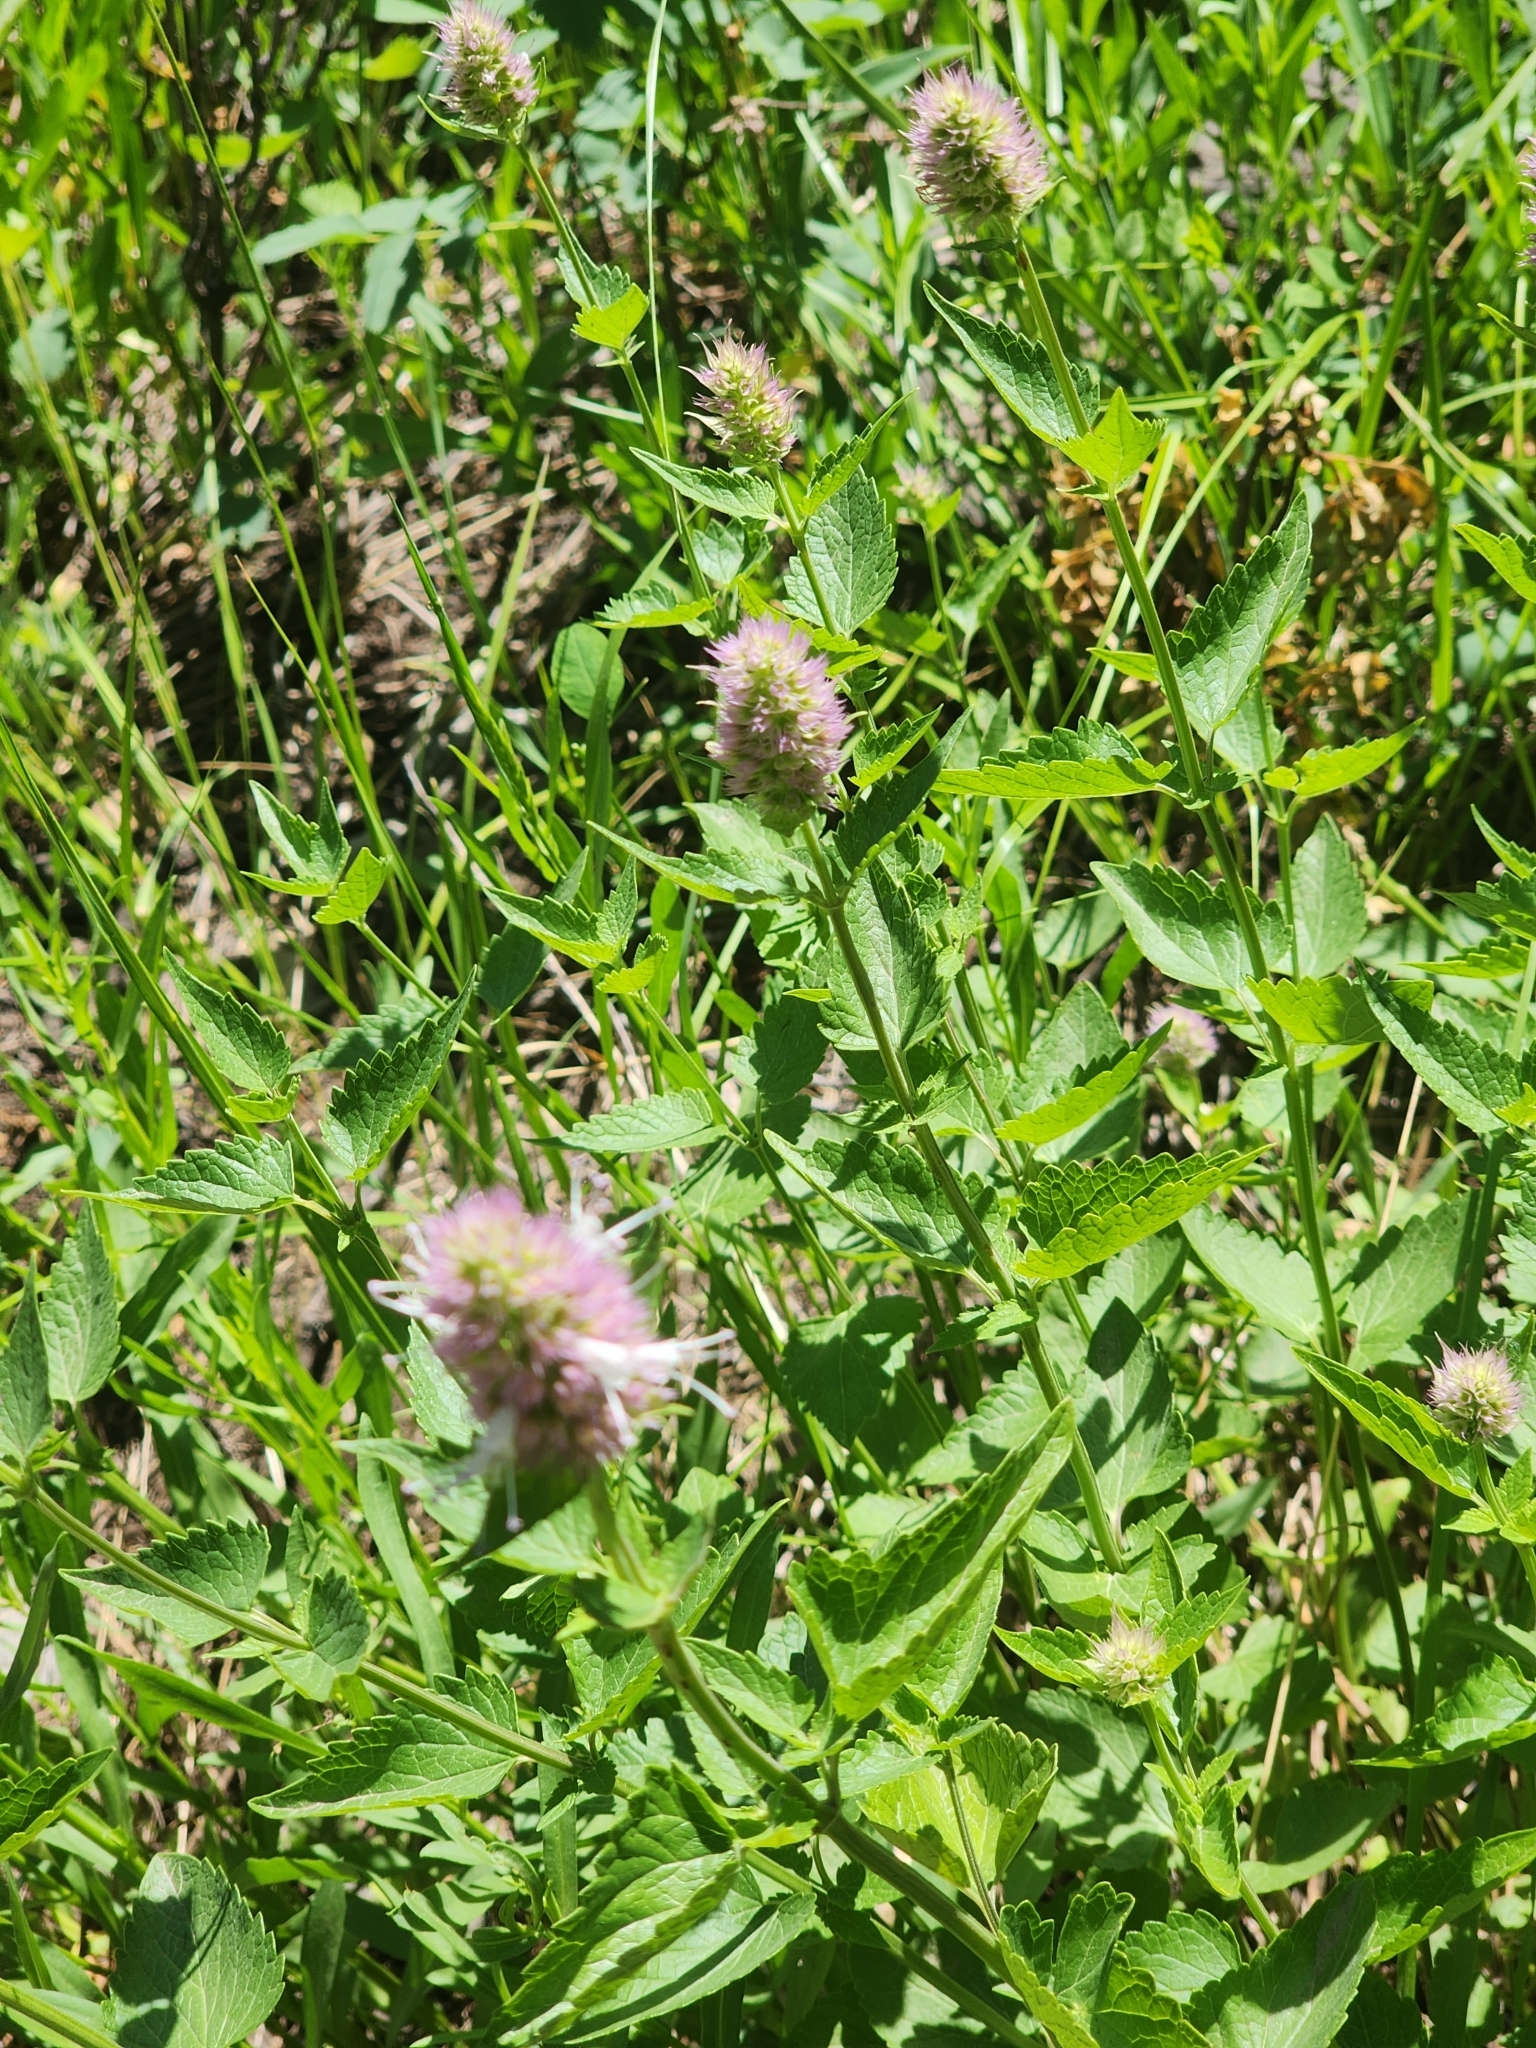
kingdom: Plantae
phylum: Tracheophyta
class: Magnoliopsida
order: Lamiales
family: Lamiaceae
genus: Agastache
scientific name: Agastache urticifolia
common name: Horsemint giant hyssop
